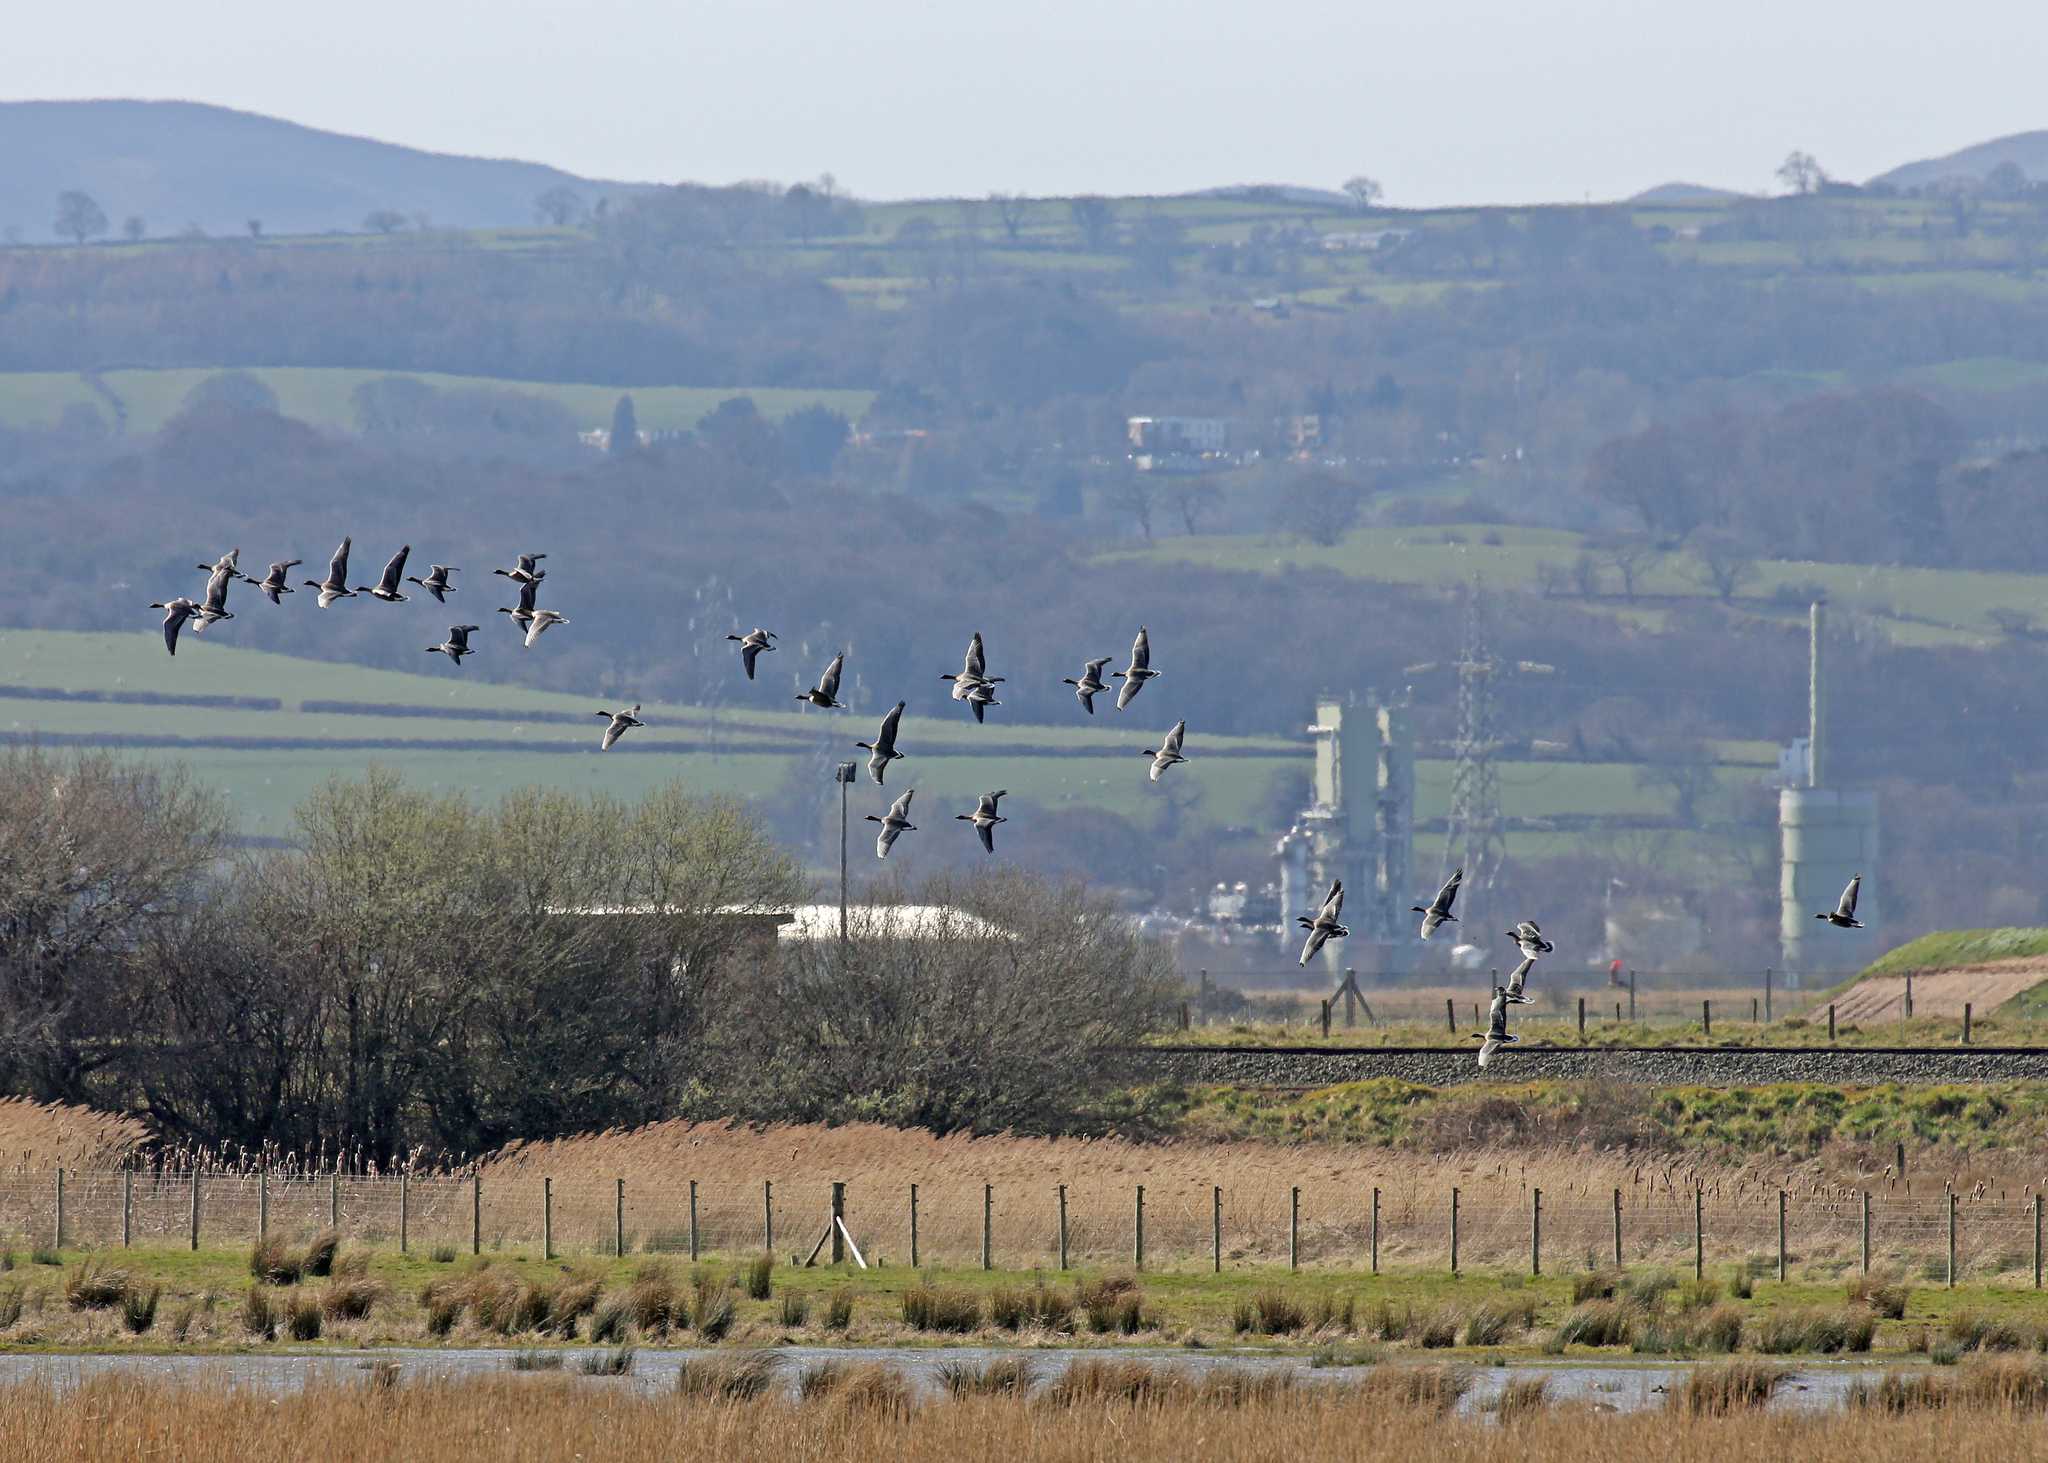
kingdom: Animalia
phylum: Chordata
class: Aves
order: Anseriformes
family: Anatidae
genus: Anser
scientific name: Anser brachyrhynchus
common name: Pink-footed goose
